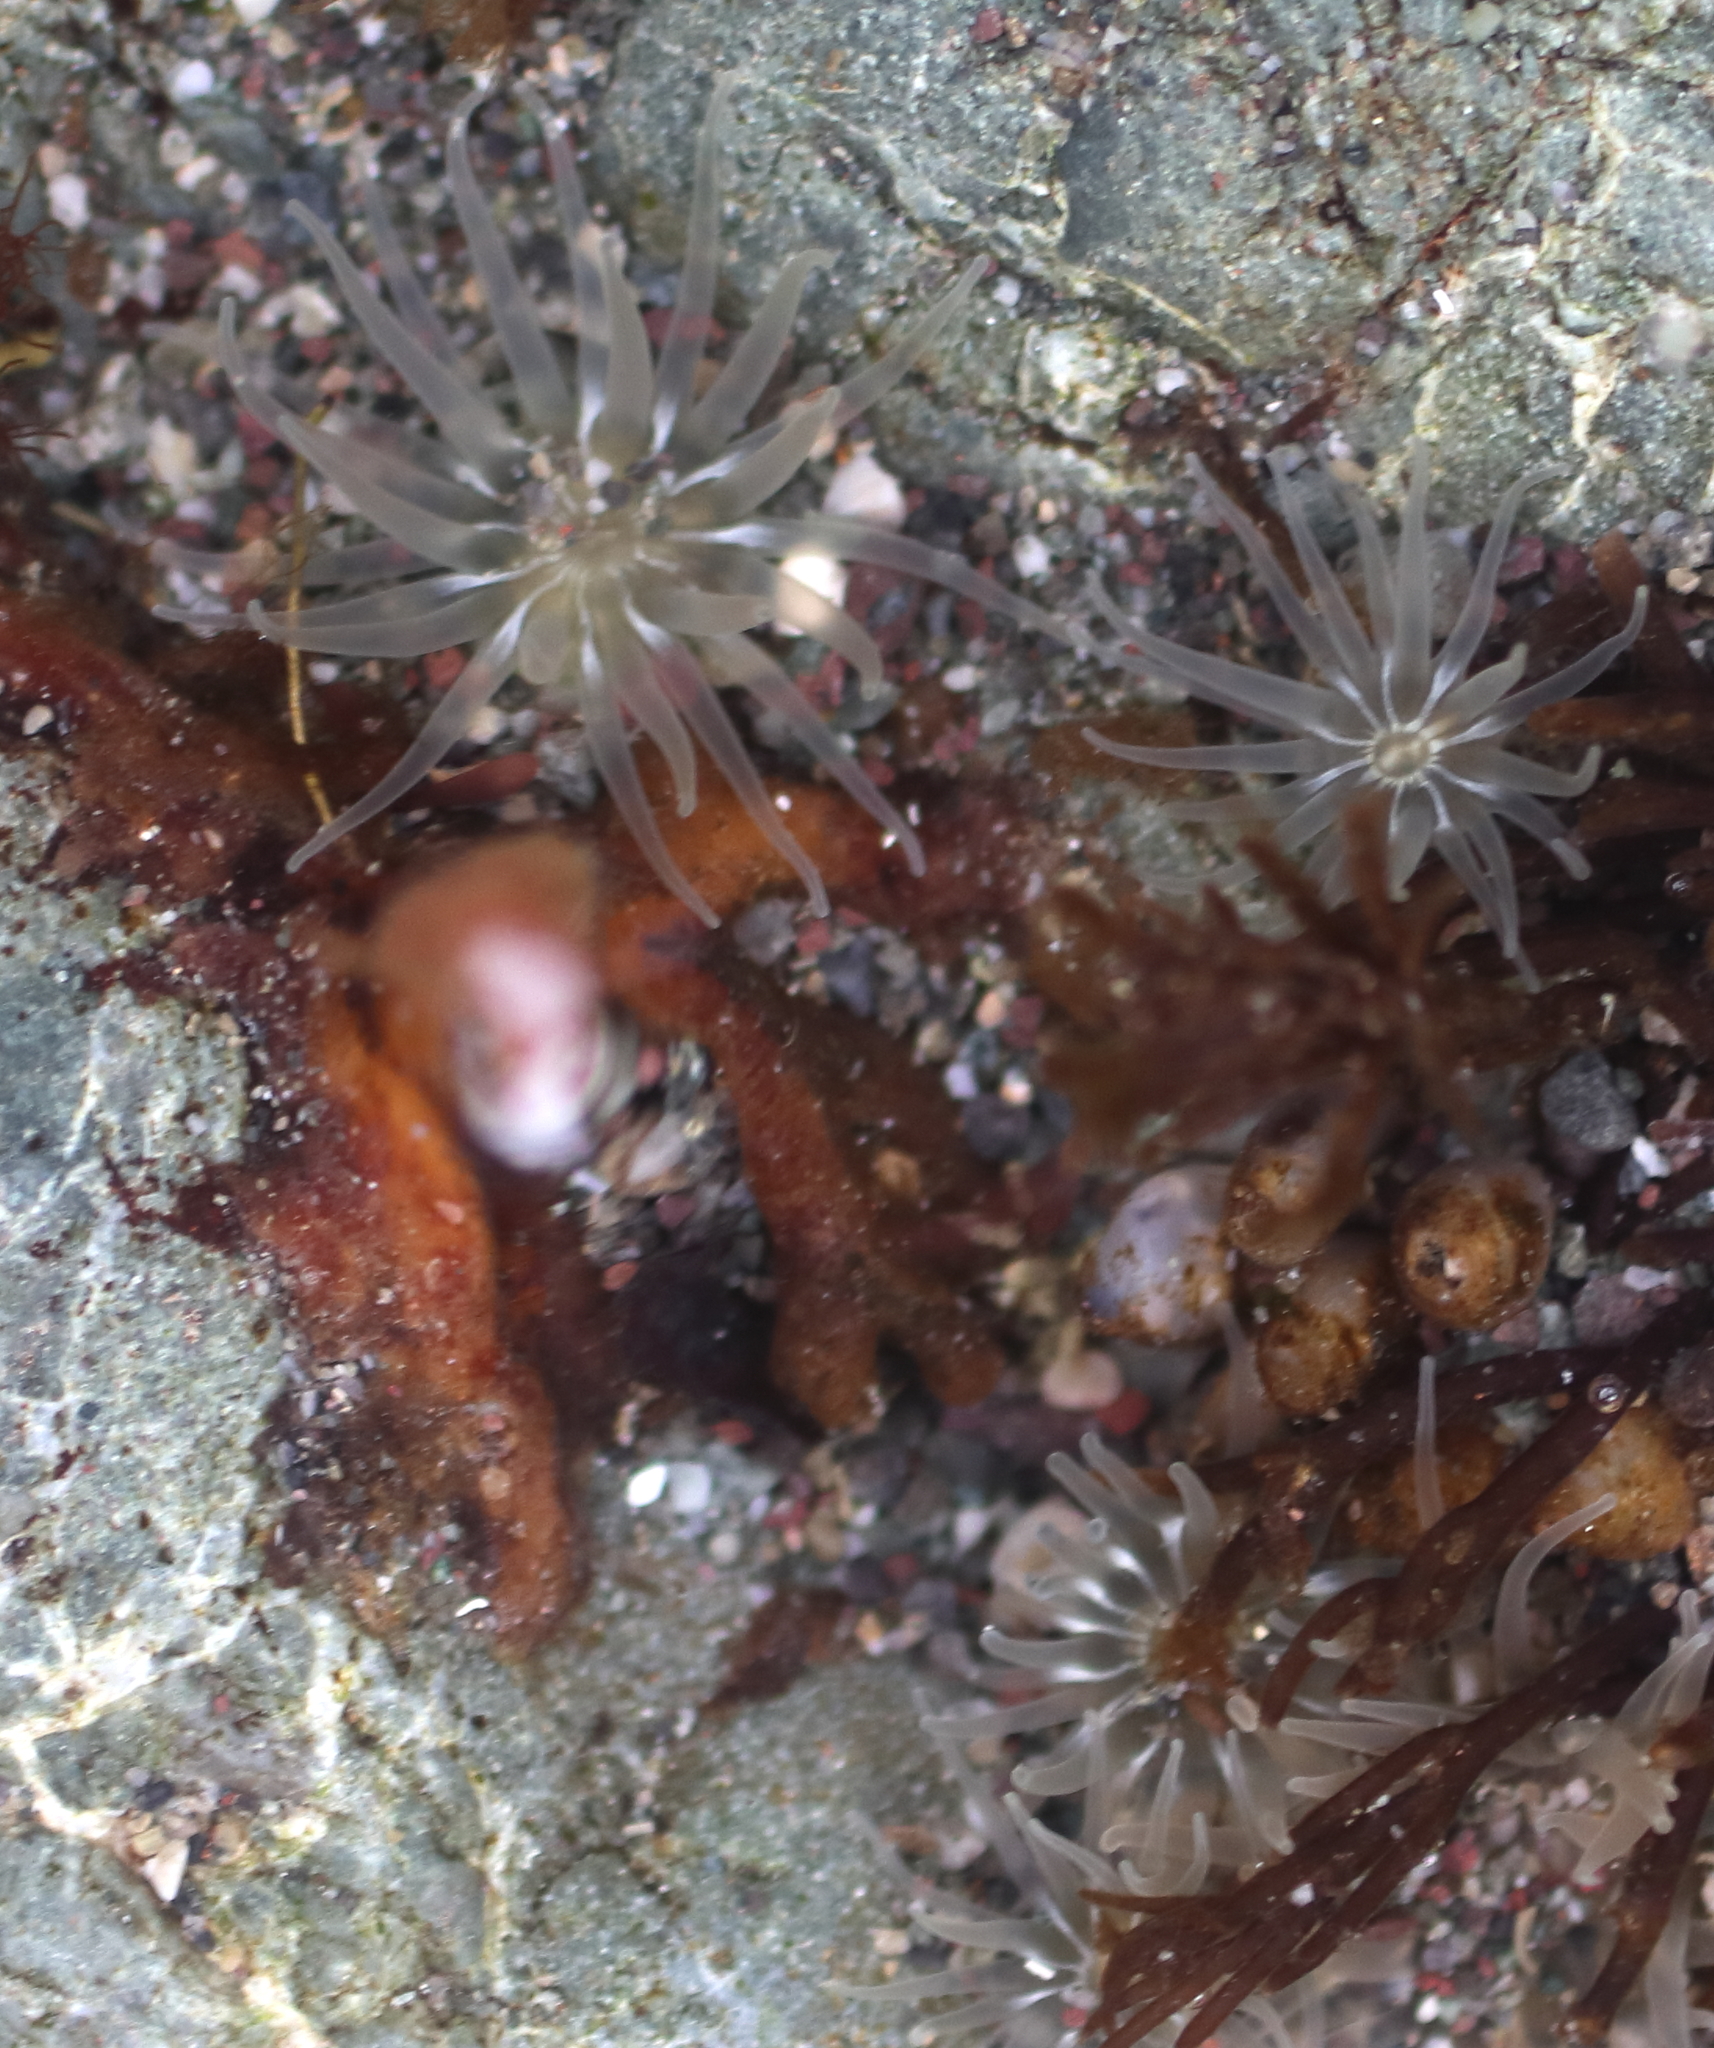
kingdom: Animalia
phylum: Cnidaria
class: Anthozoa
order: Actiniaria
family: Actiniidae
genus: Aulactinia
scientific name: Aulactinia incubans
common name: Incubating anemone
